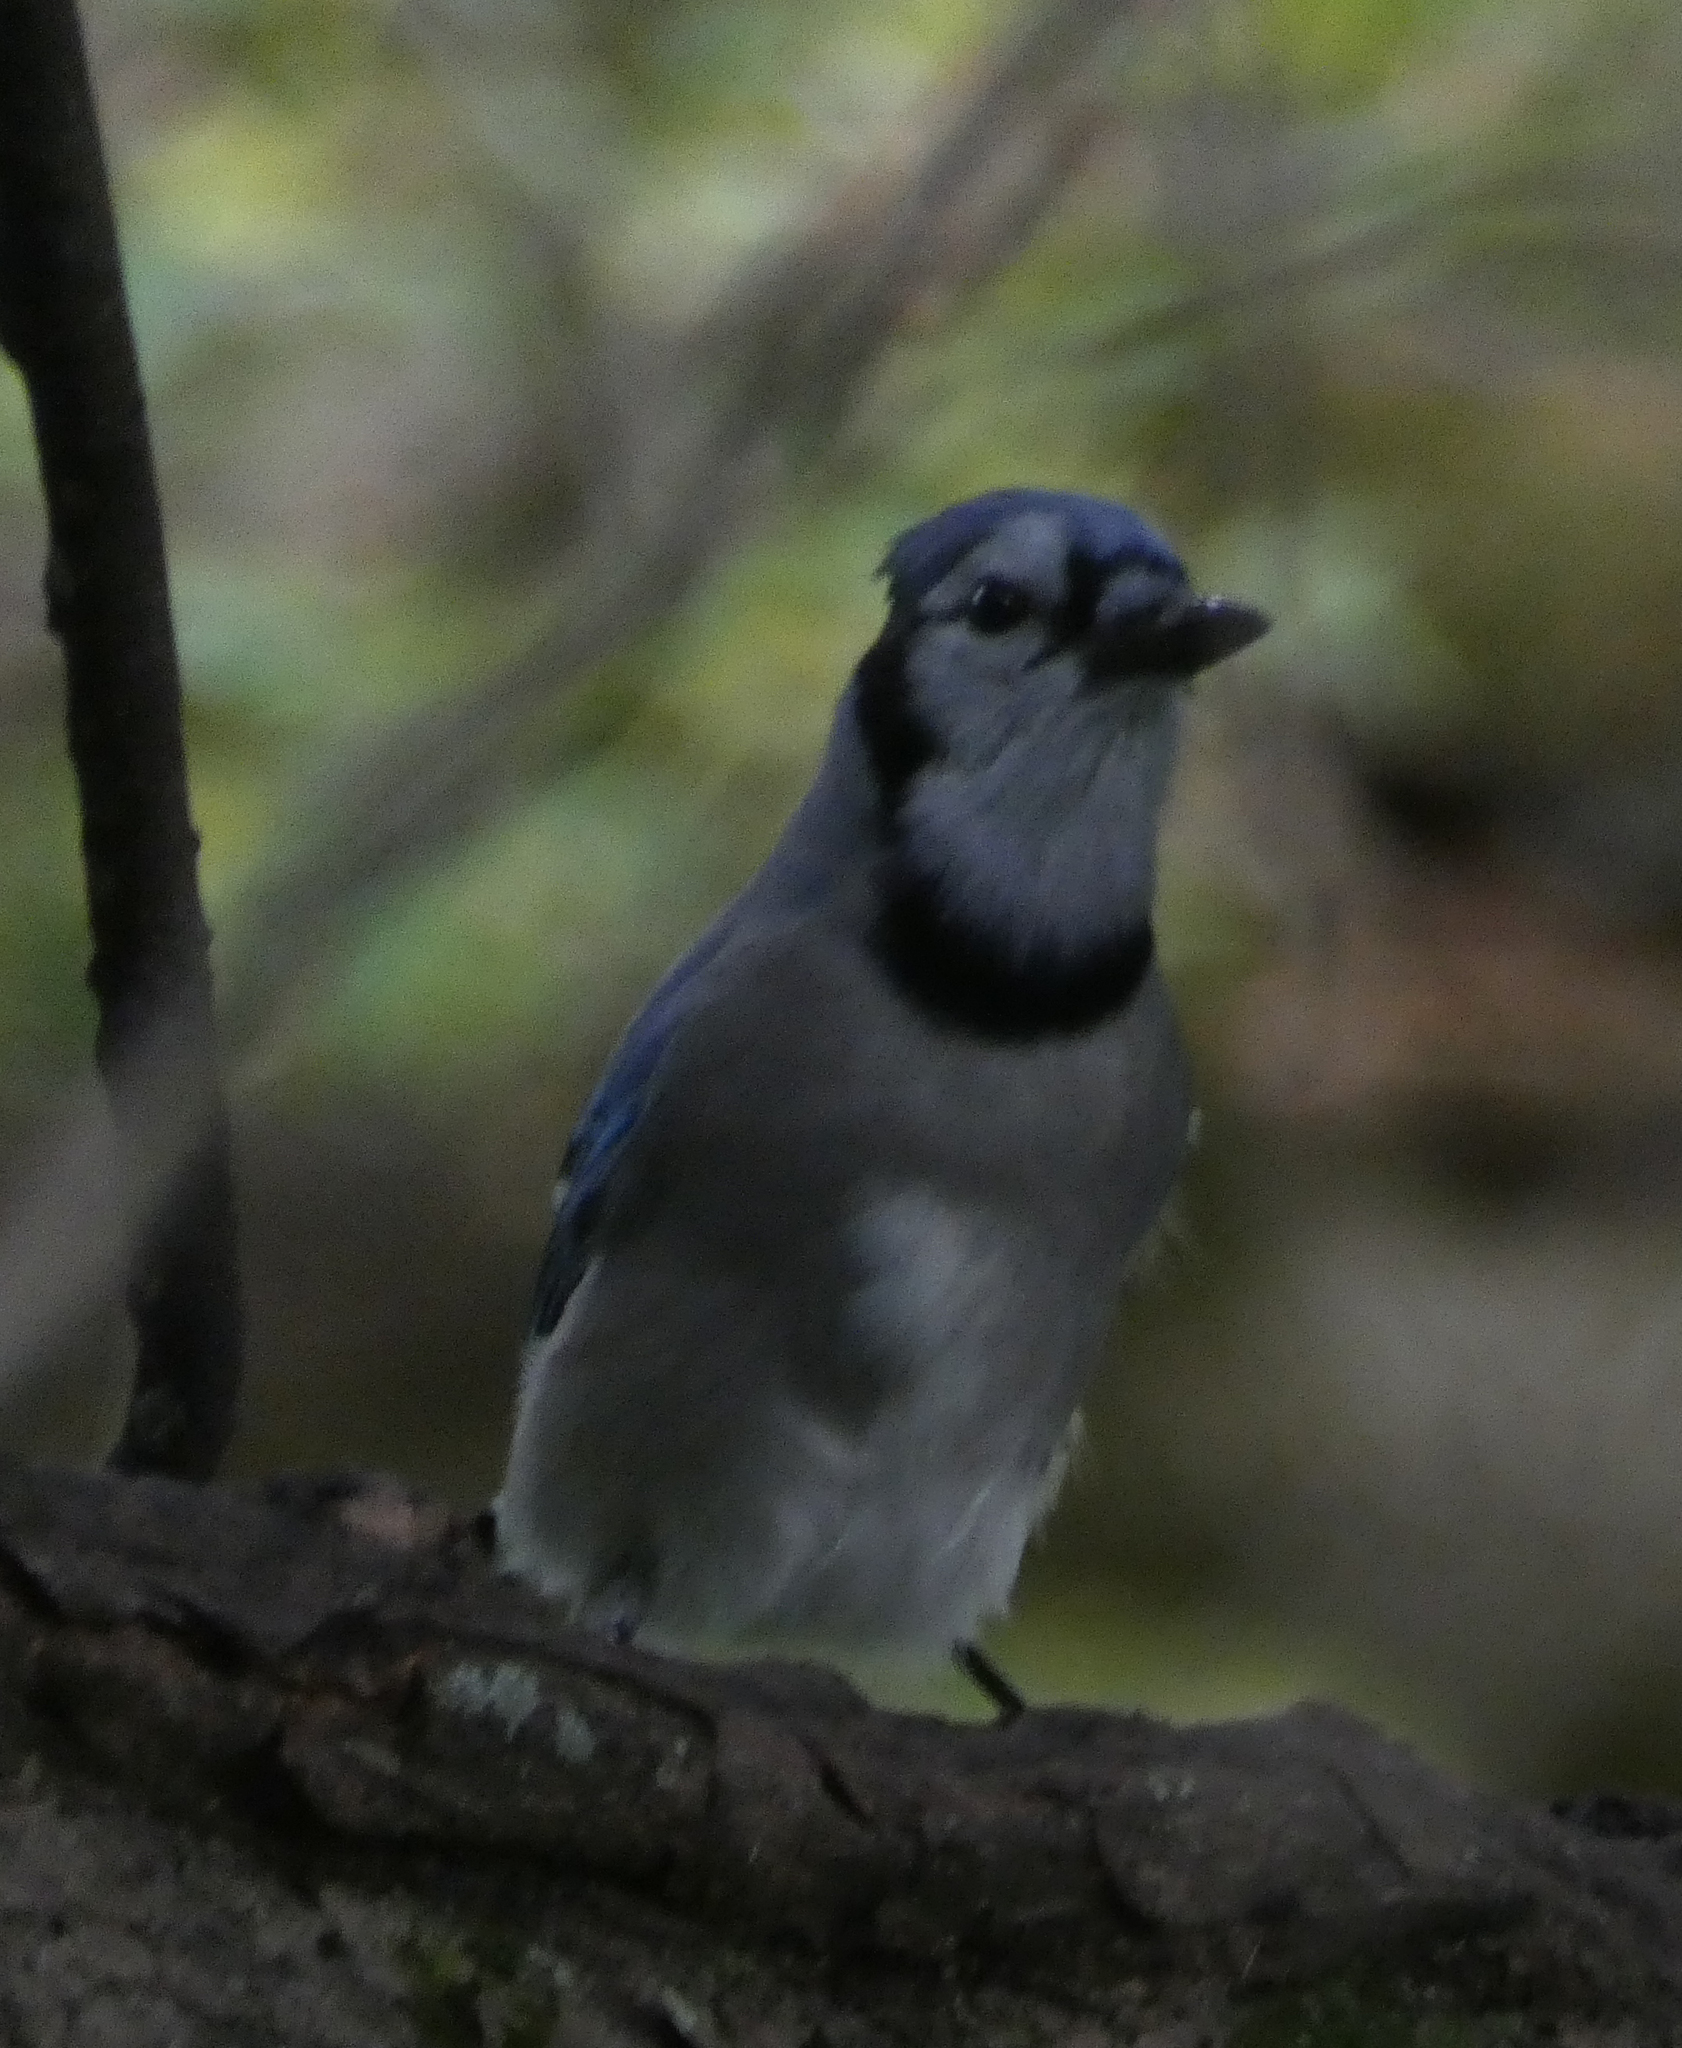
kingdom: Animalia
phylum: Chordata
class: Aves
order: Passeriformes
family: Corvidae
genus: Cyanocitta
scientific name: Cyanocitta cristata
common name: Blue jay
